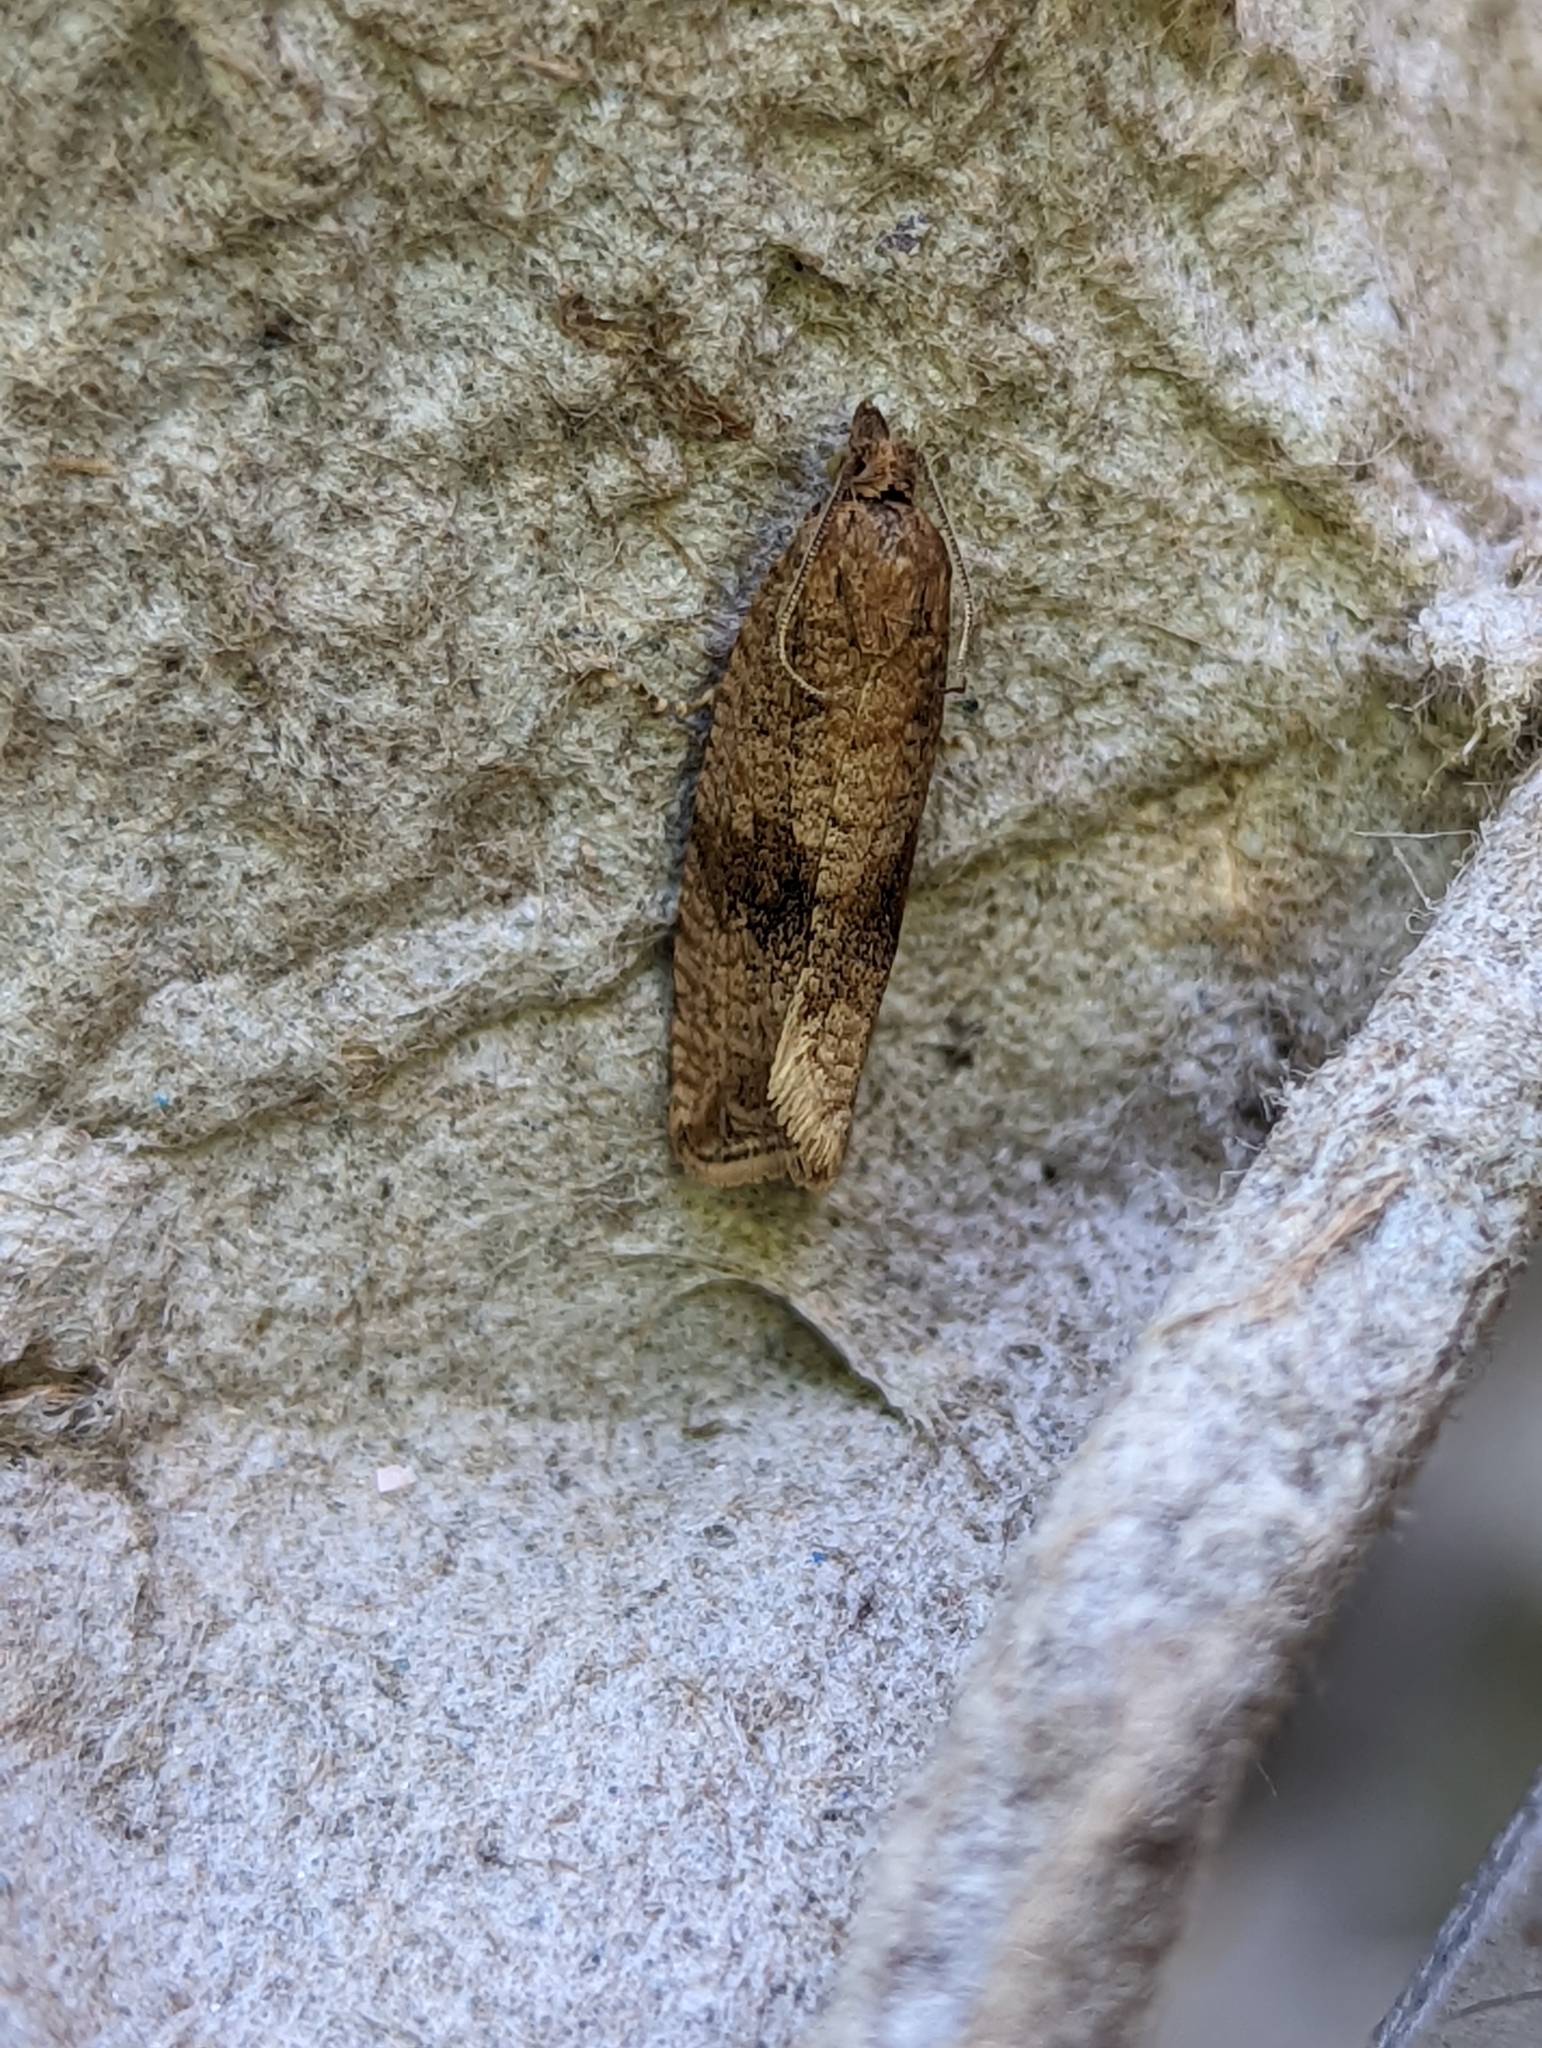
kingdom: Animalia
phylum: Arthropoda
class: Insecta
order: Lepidoptera
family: Tortricidae
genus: Celypha
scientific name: Celypha striana
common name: Barred marble
